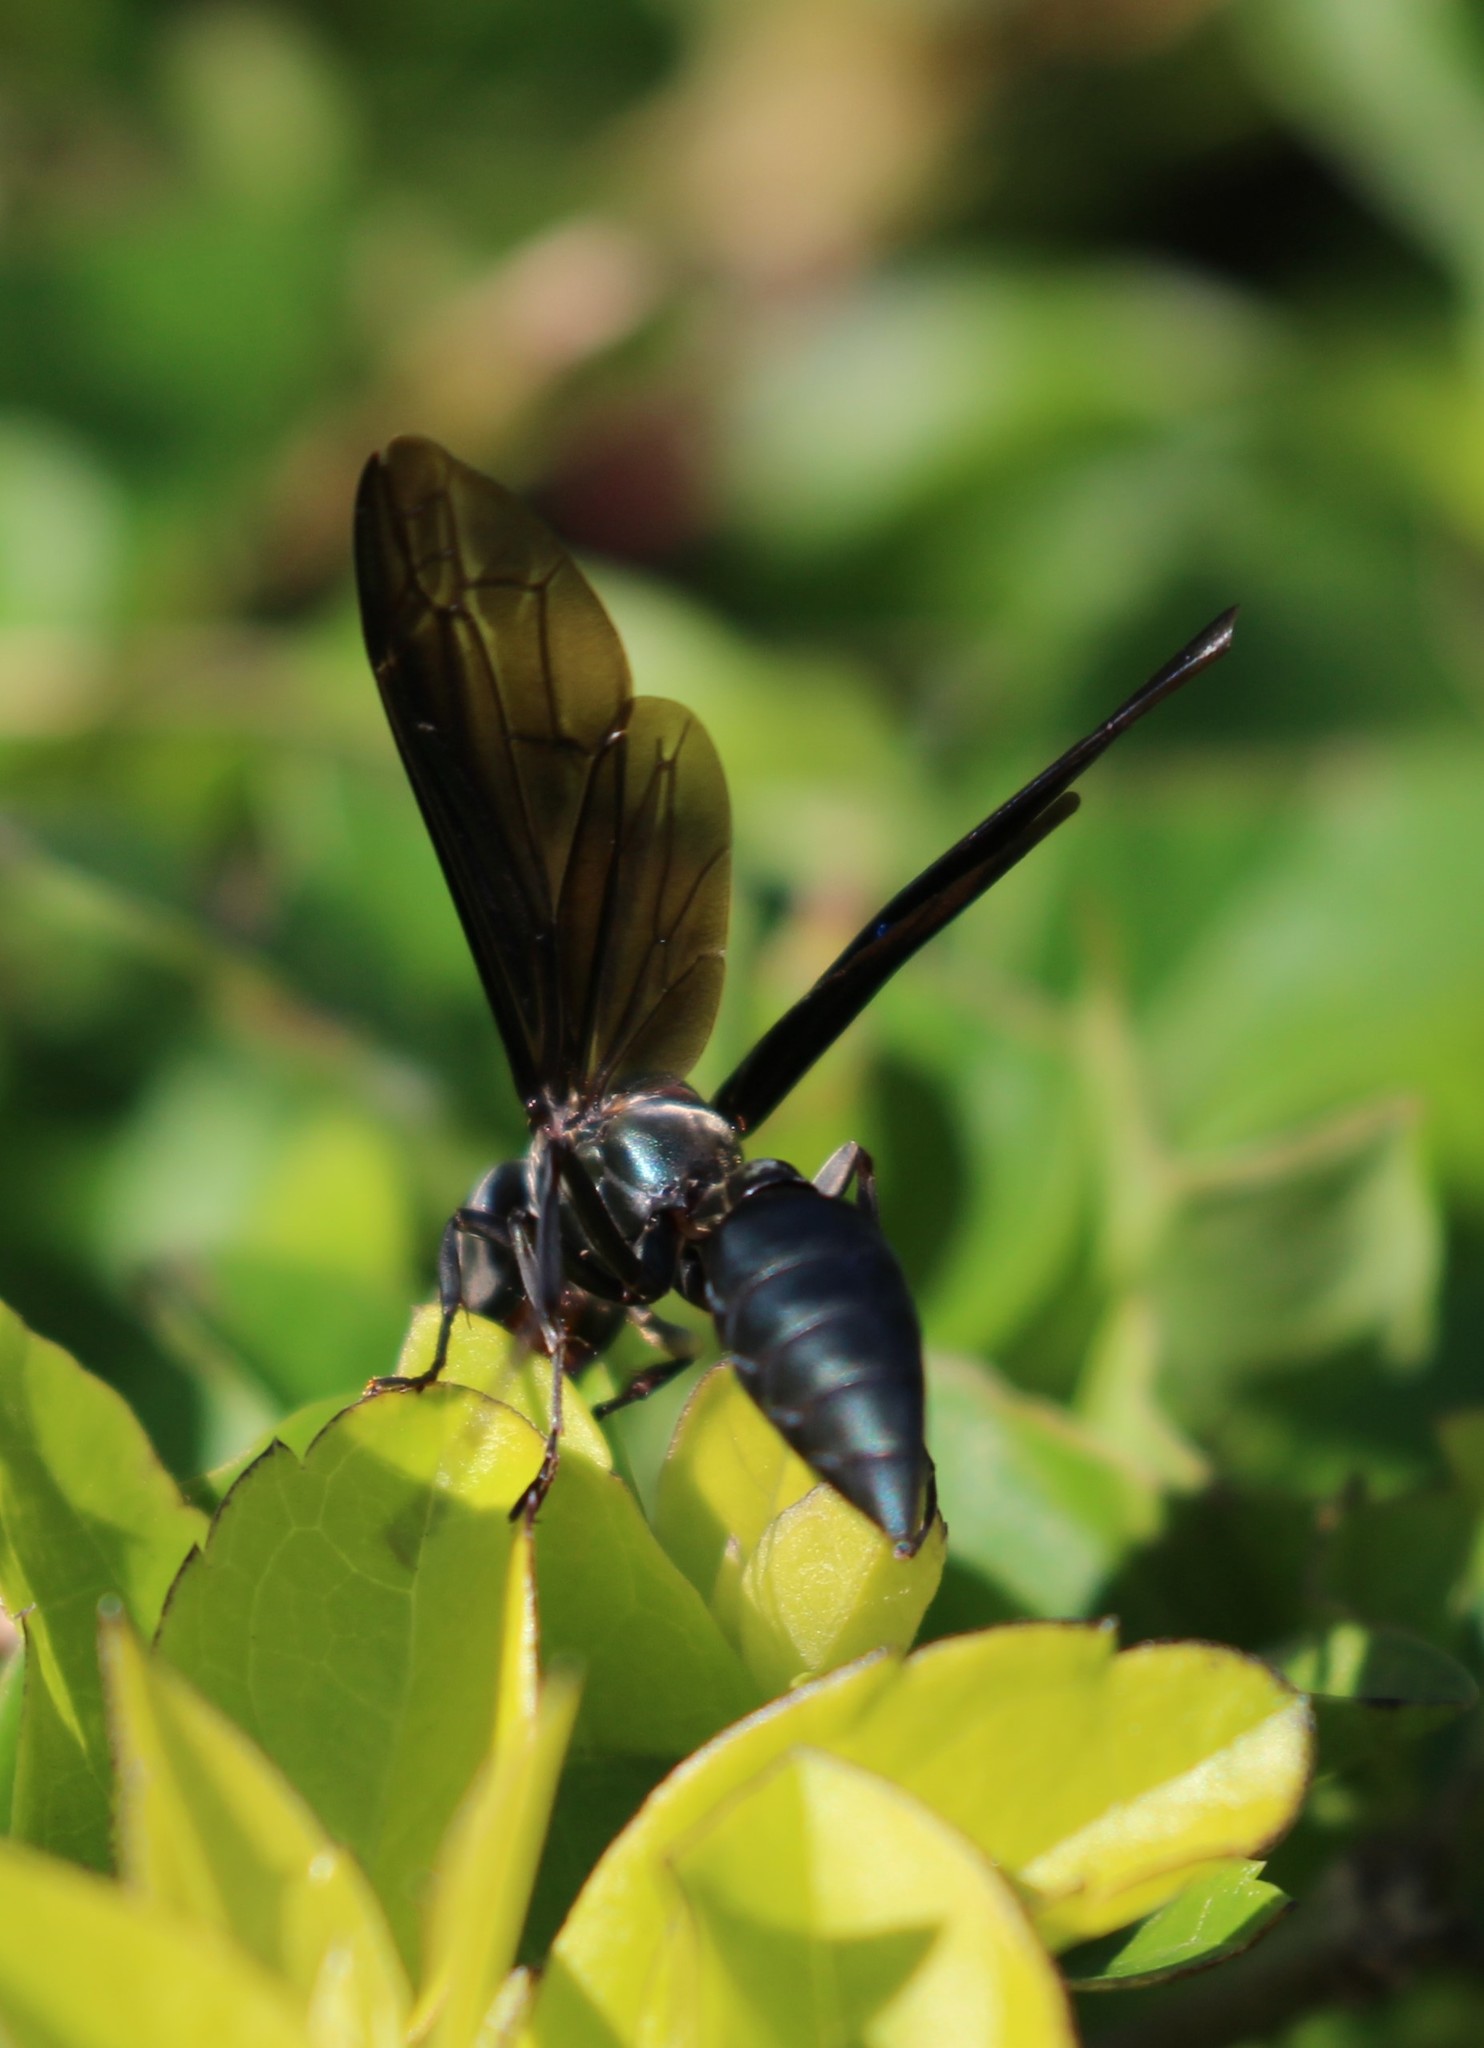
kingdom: Animalia
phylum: Arthropoda
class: Insecta
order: Hymenoptera
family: Vespidae
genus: Synoeca
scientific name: Synoeca septentrionalis
